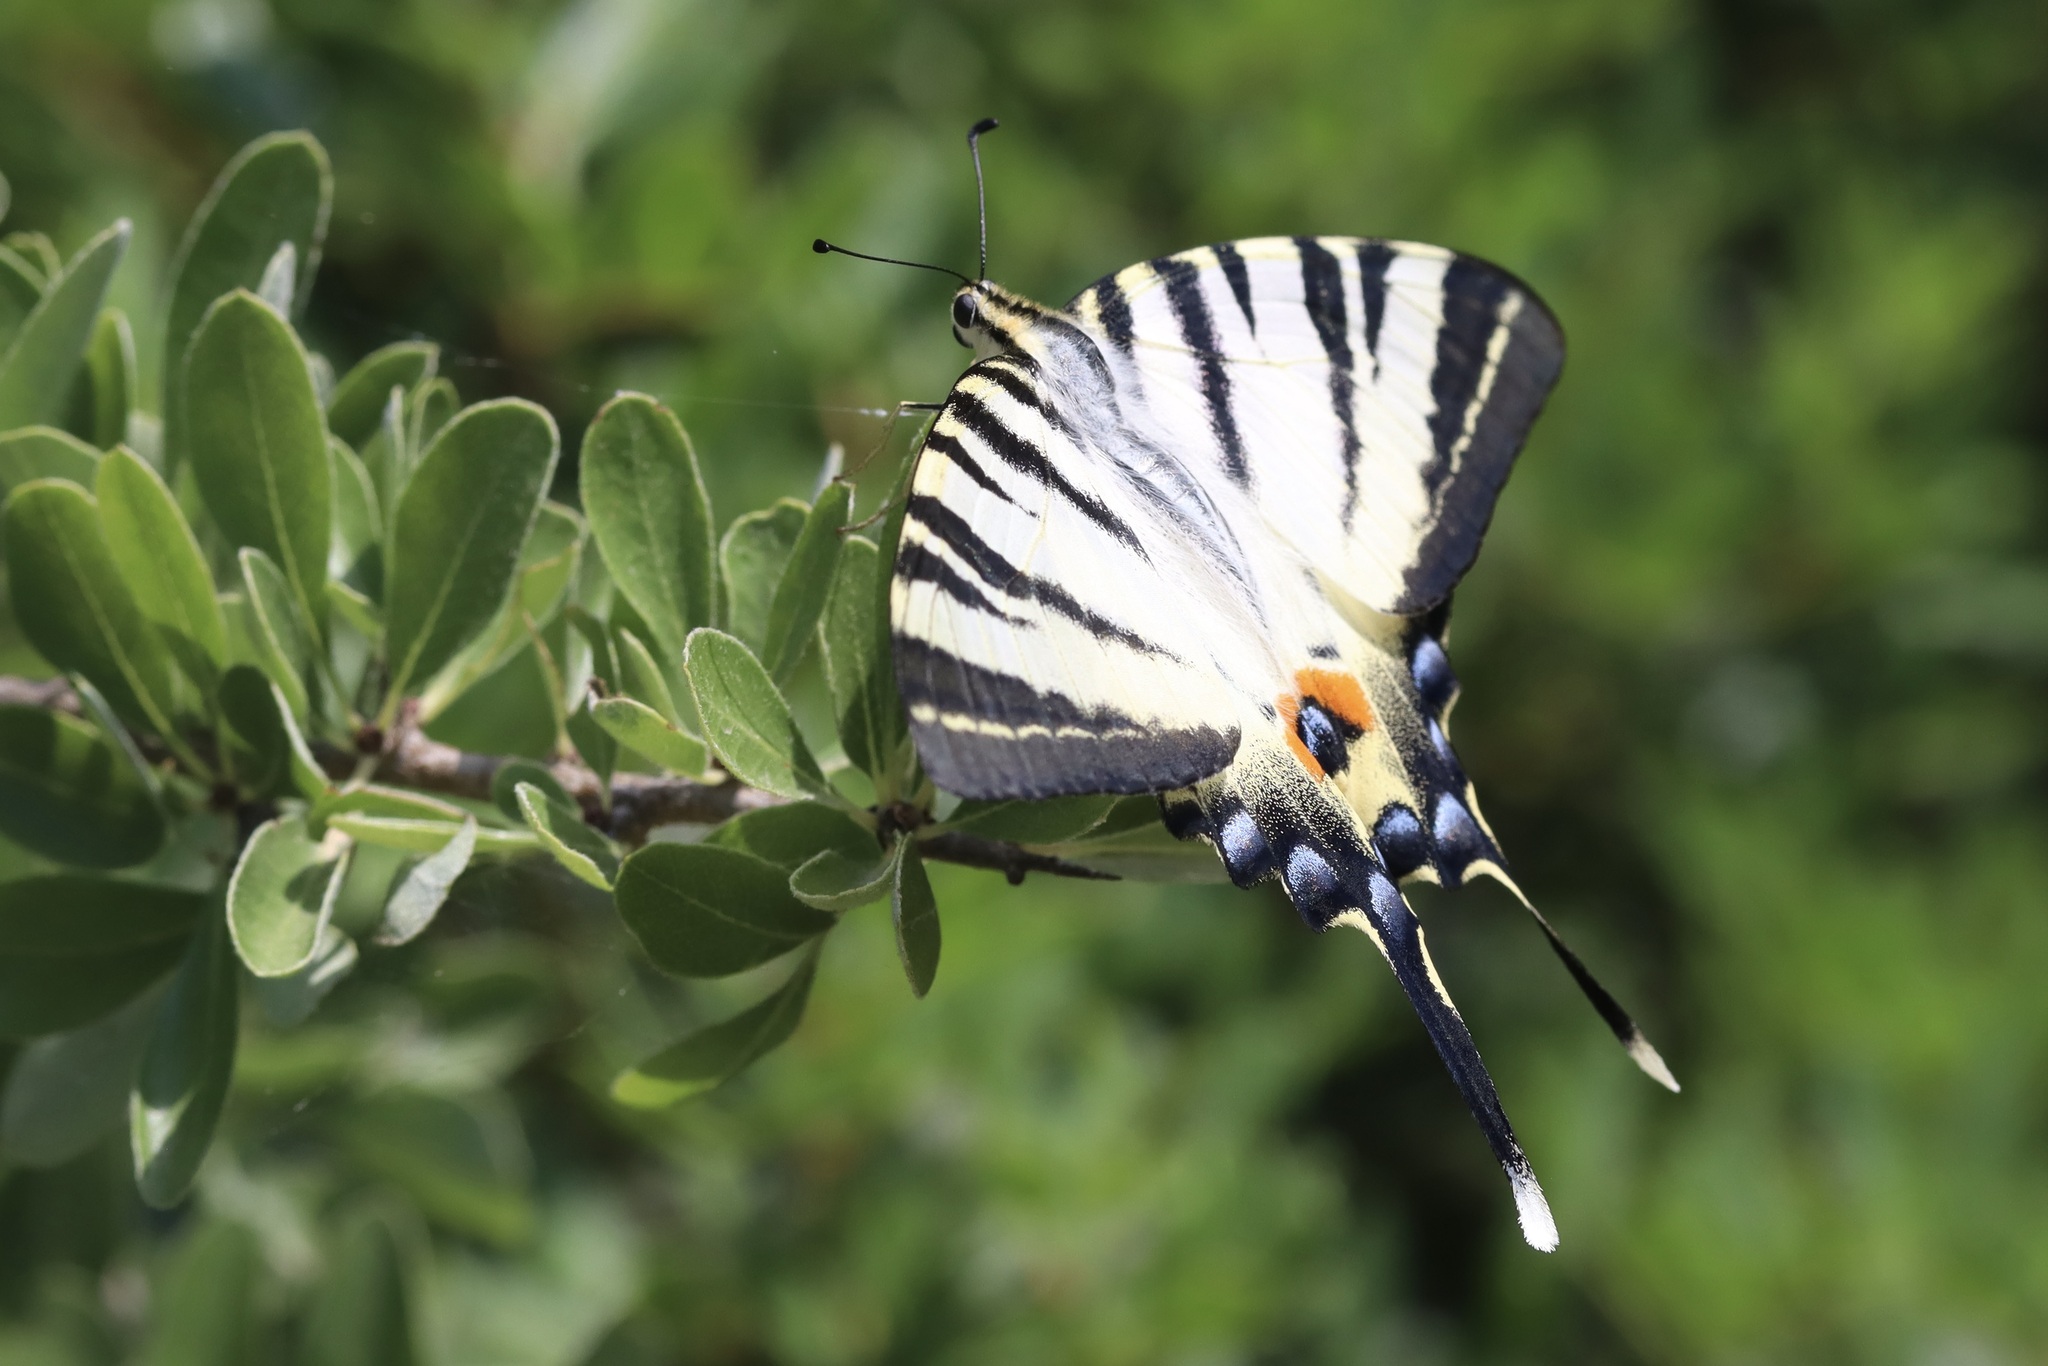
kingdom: Animalia
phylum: Arthropoda
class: Insecta
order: Lepidoptera
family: Papilionidae
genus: Iphiclides
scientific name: Iphiclides podalirius
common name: Scarce swallowtail
